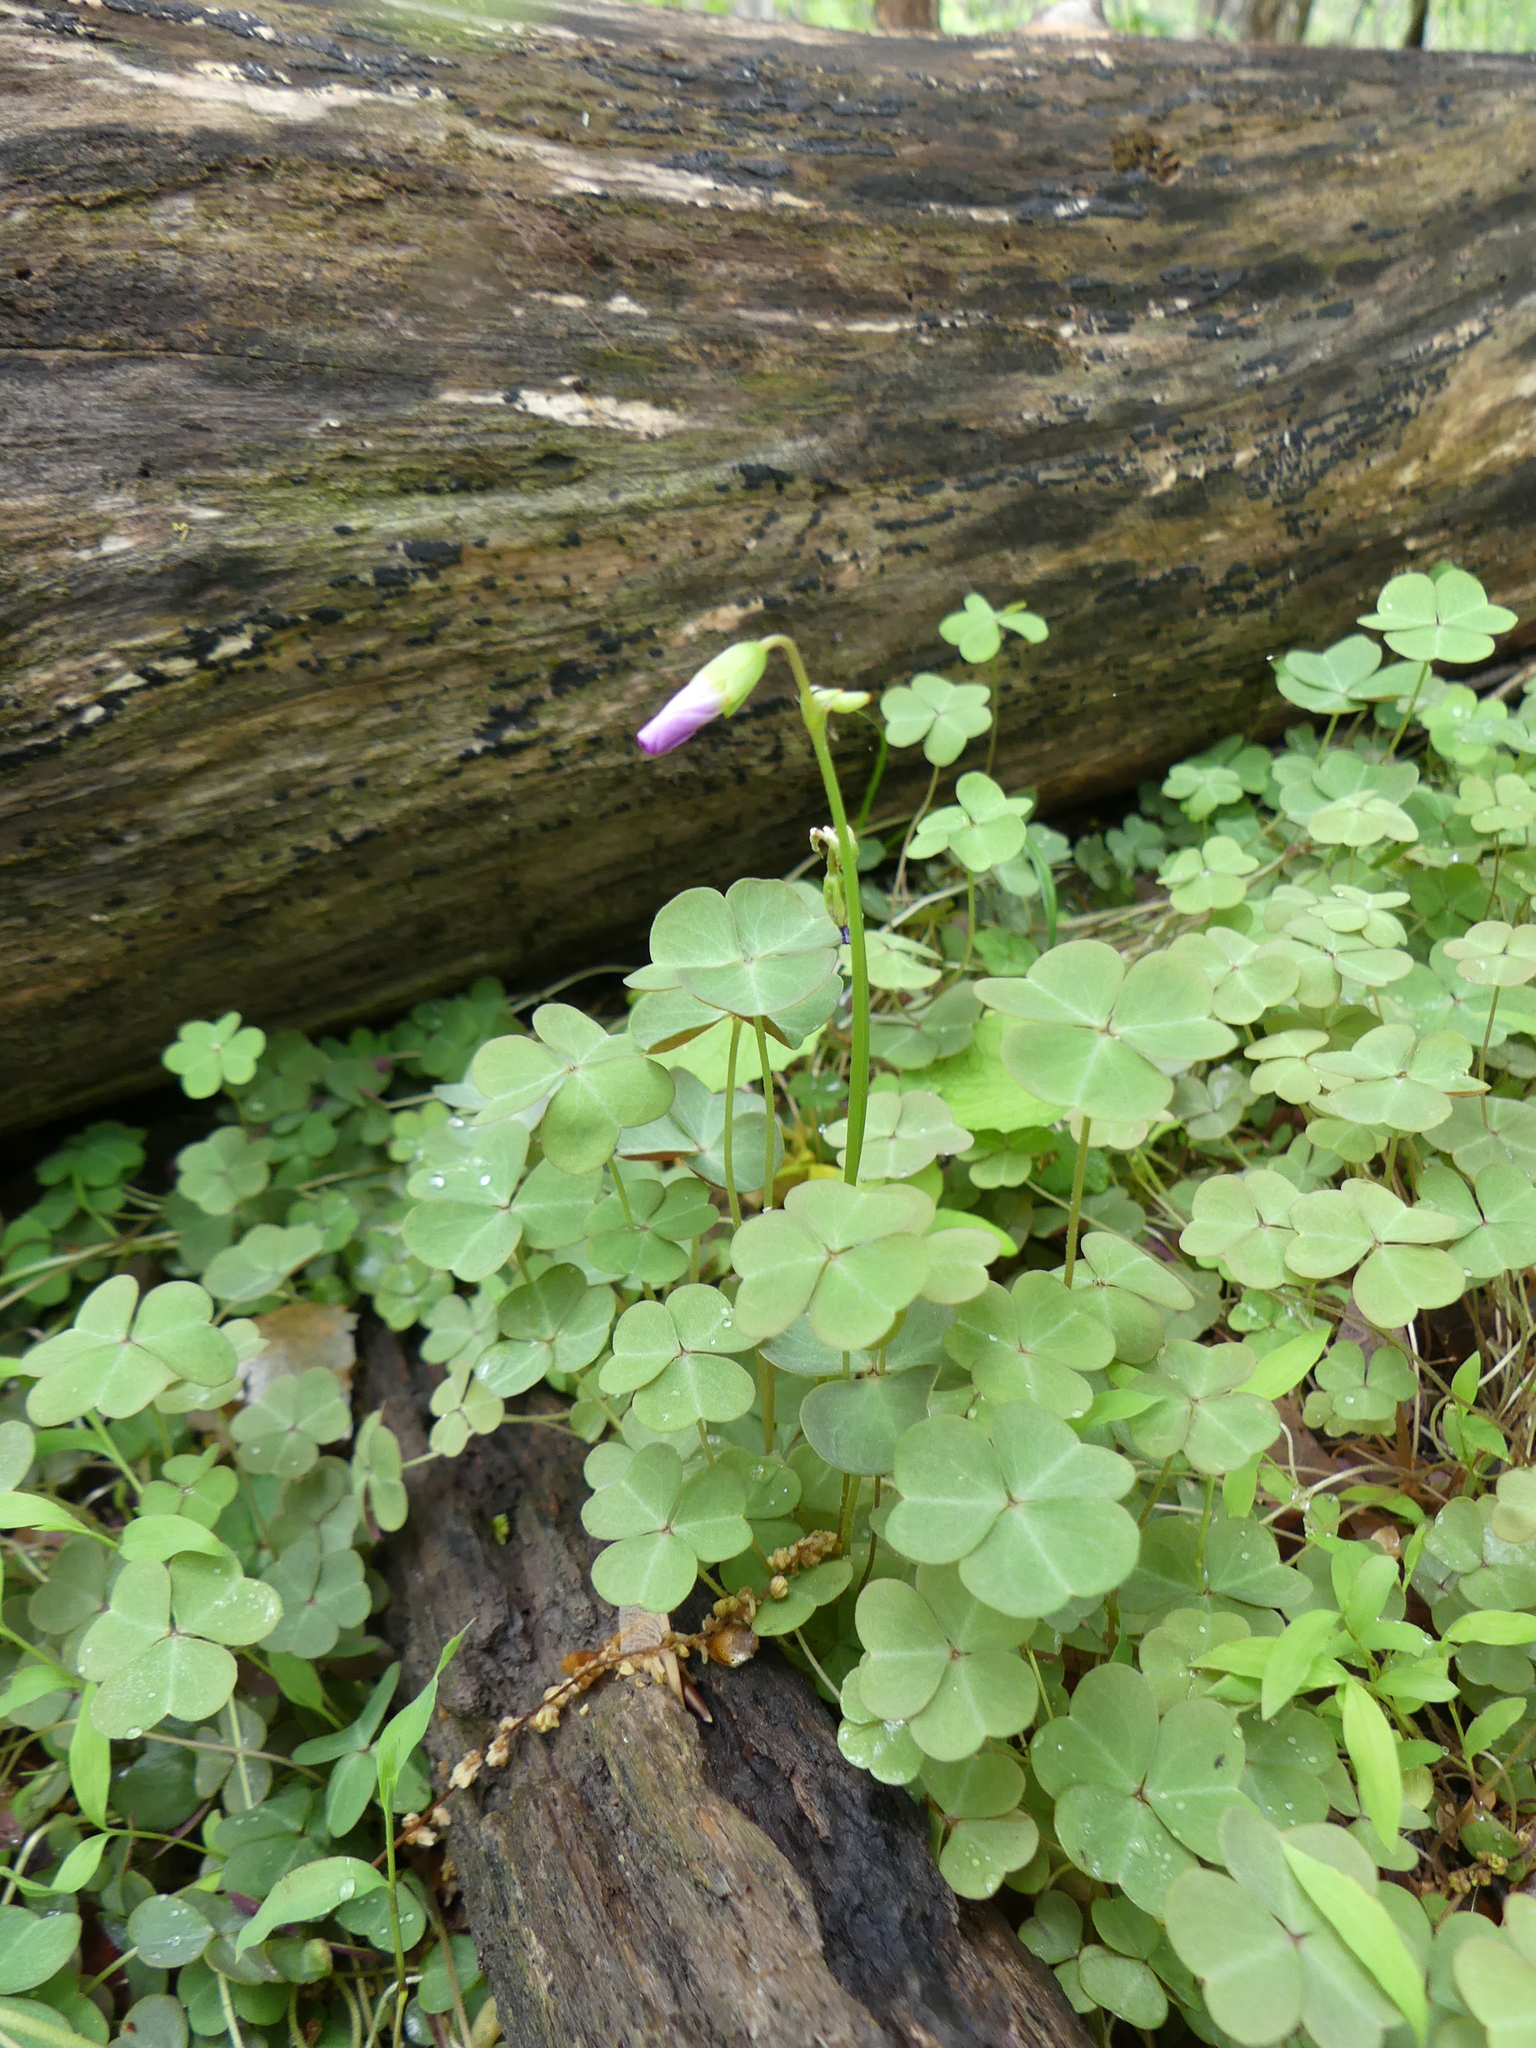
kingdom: Plantae
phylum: Tracheophyta
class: Magnoliopsida
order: Oxalidales
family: Oxalidaceae
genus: Oxalis
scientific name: Oxalis violacea
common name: Violet wood-sorrel
